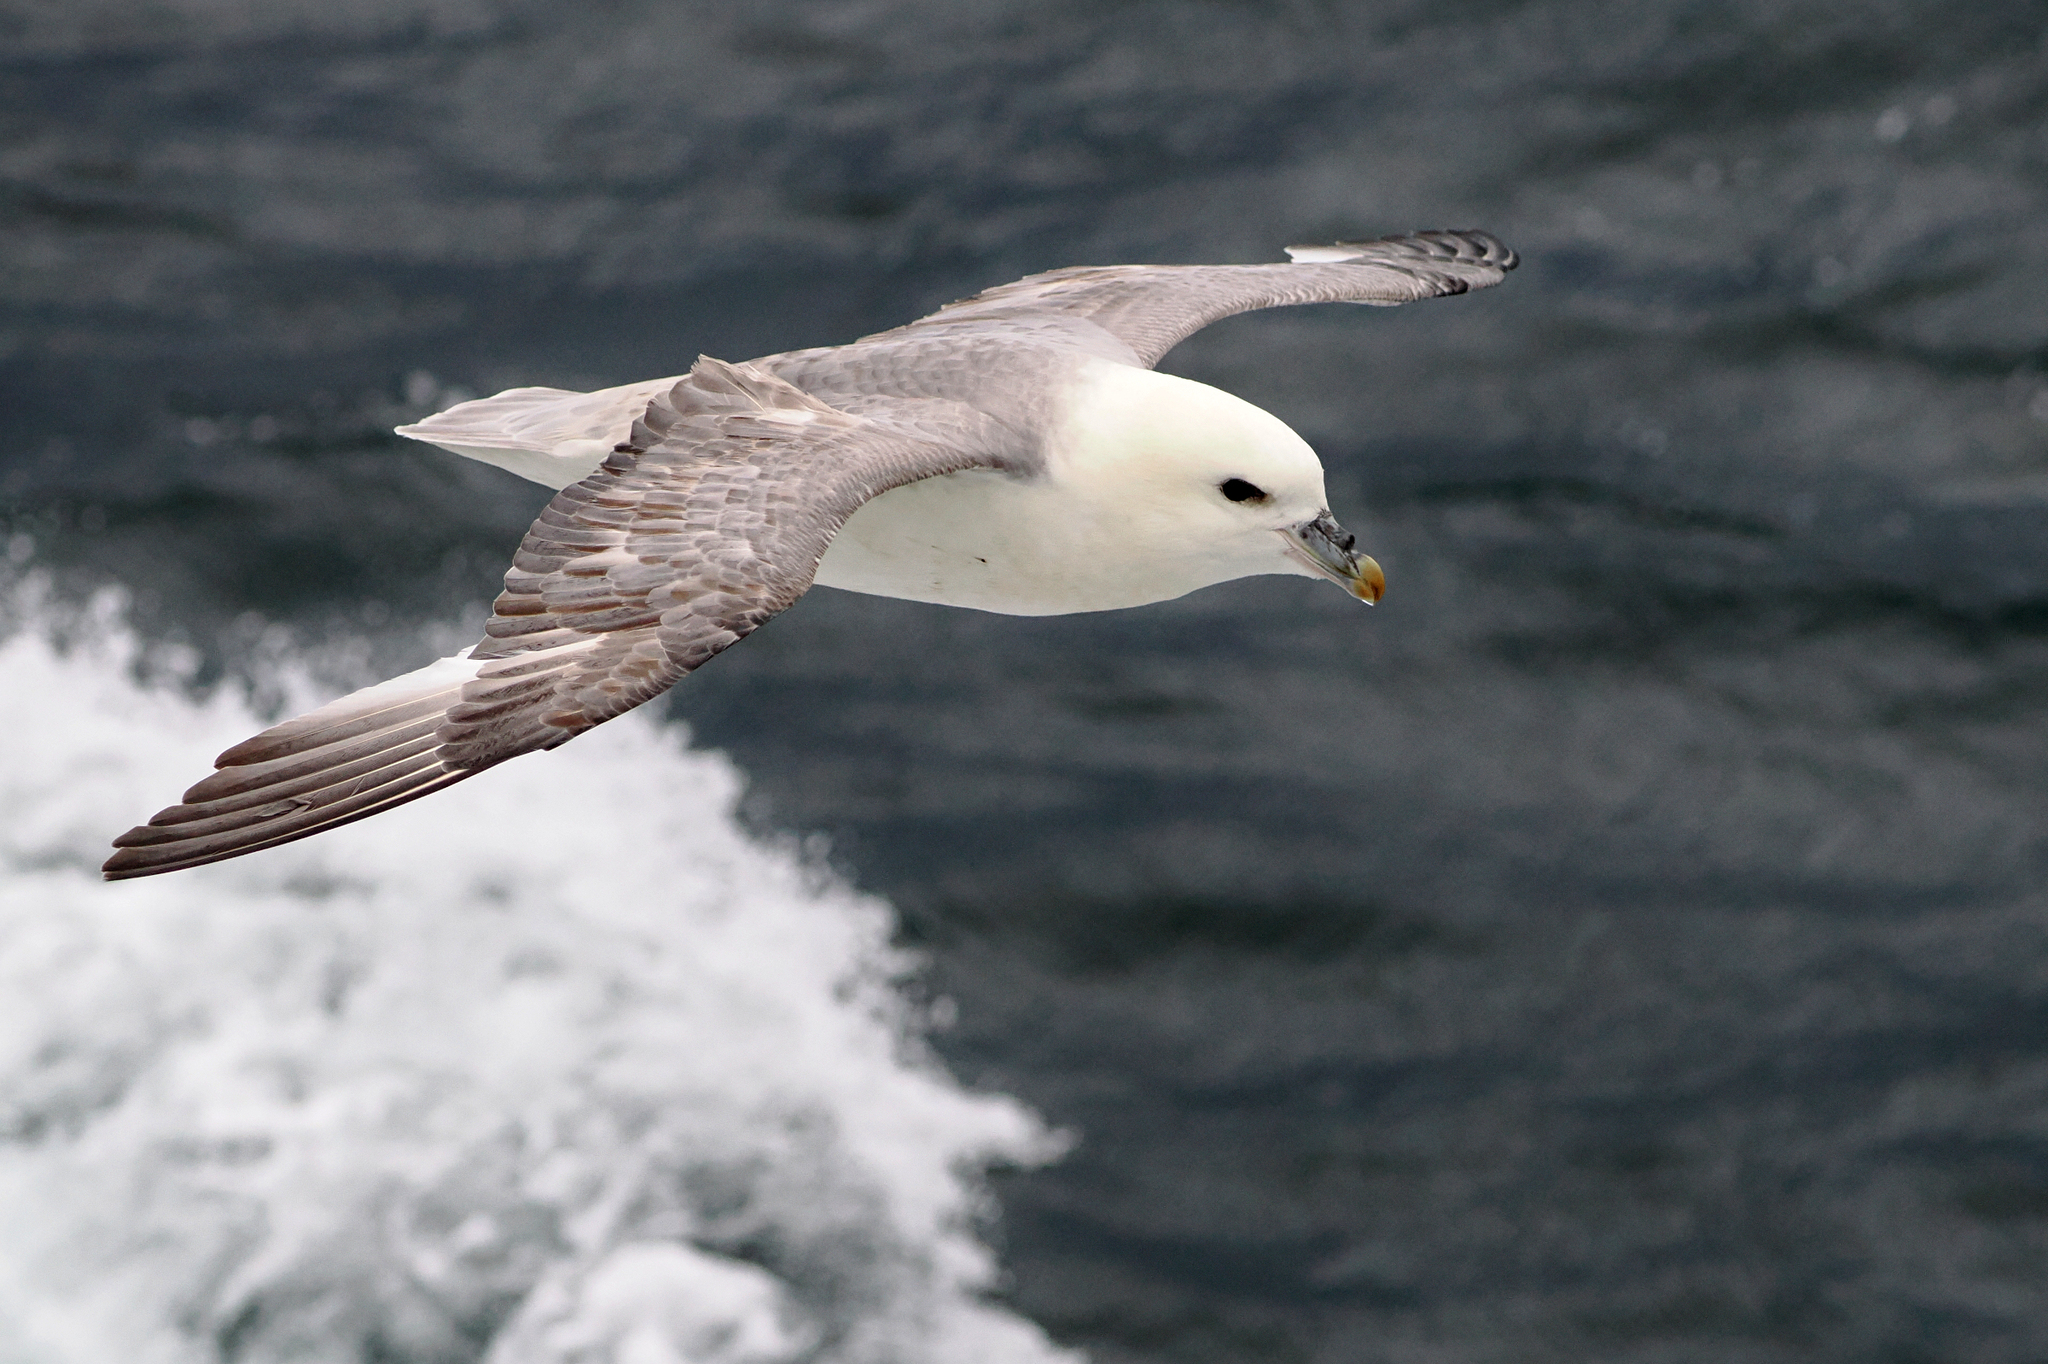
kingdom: Animalia
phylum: Chordata
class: Aves
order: Procellariiformes
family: Procellariidae
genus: Fulmarus
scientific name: Fulmarus glacialis
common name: Northern fulmar
